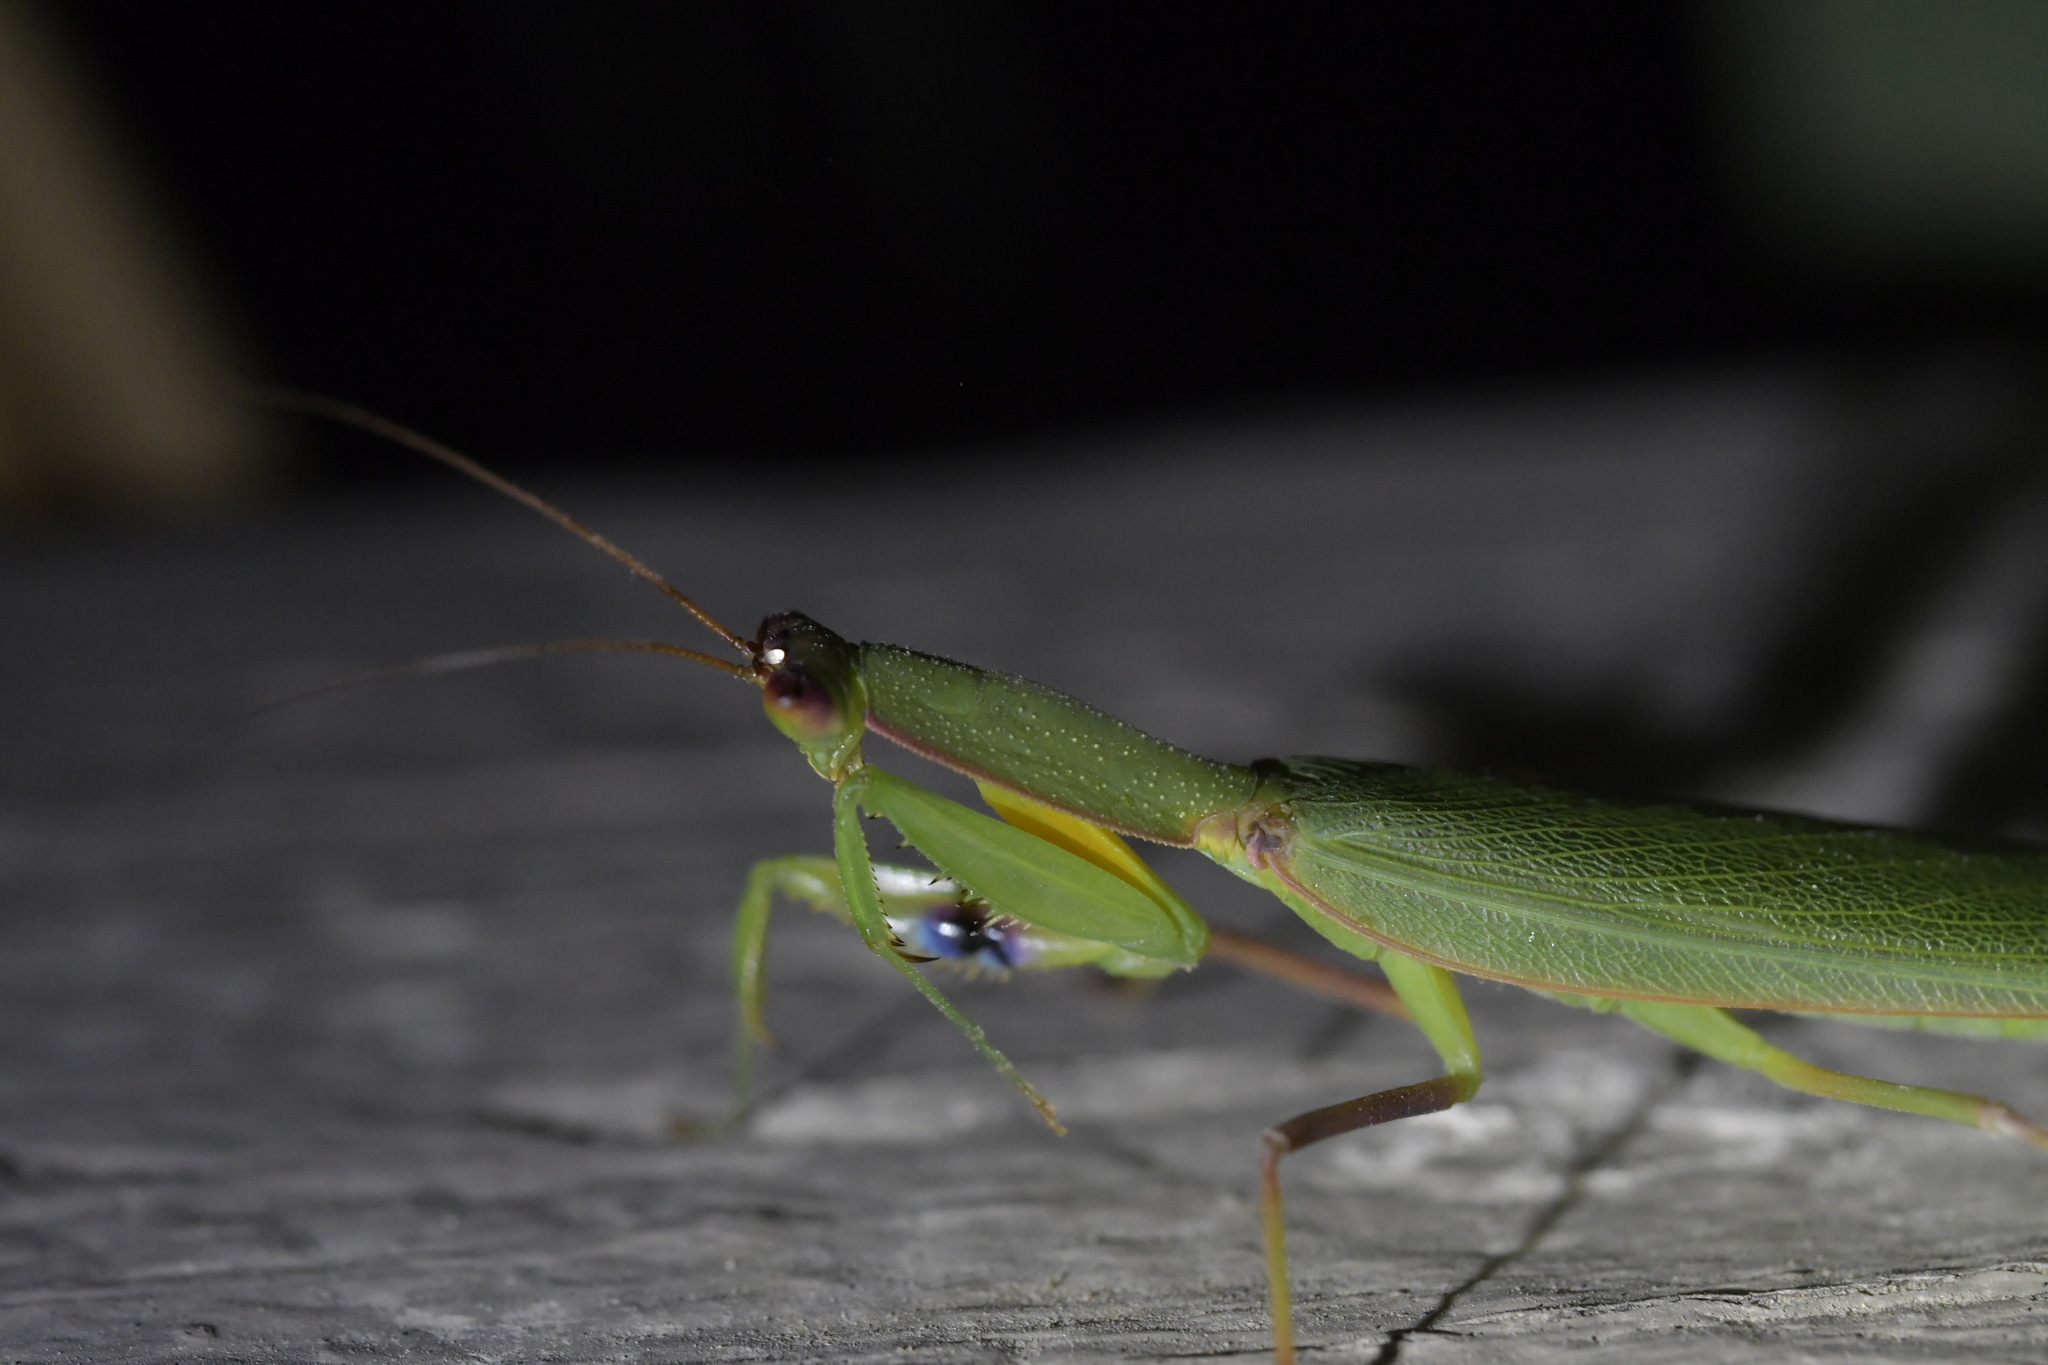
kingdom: Animalia
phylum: Arthropoda
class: Insecta
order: Mantodea
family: Mantidae
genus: Orthodera
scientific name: Orthodera novaezealandiae
